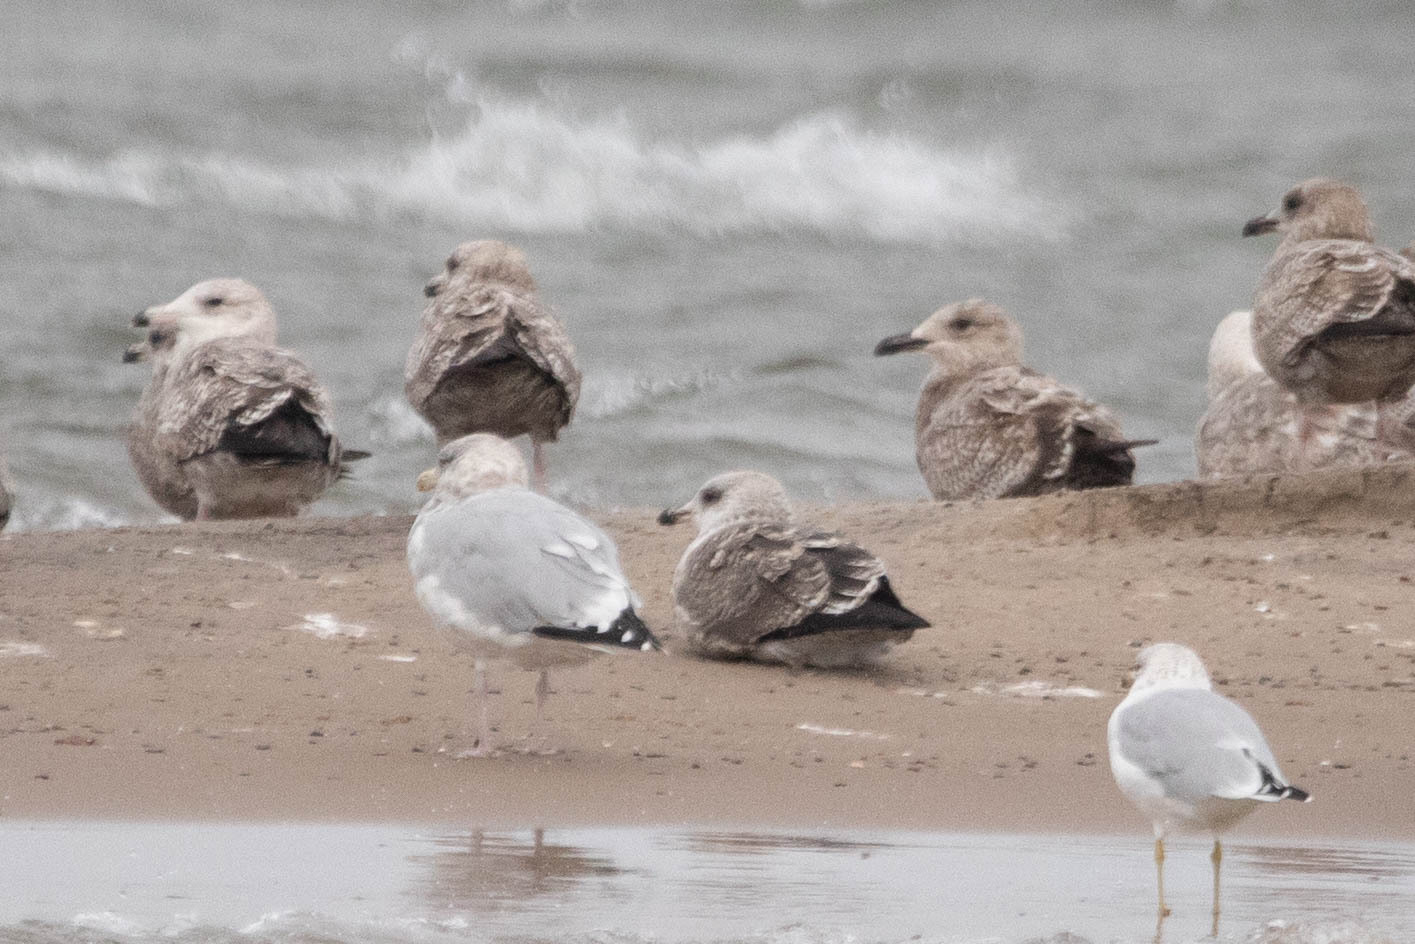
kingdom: Animalia
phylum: Chordata
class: Aves
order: Charadriiformes
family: Laridae
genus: Larus
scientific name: Larus fuscus
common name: Lesser black-backed gull
